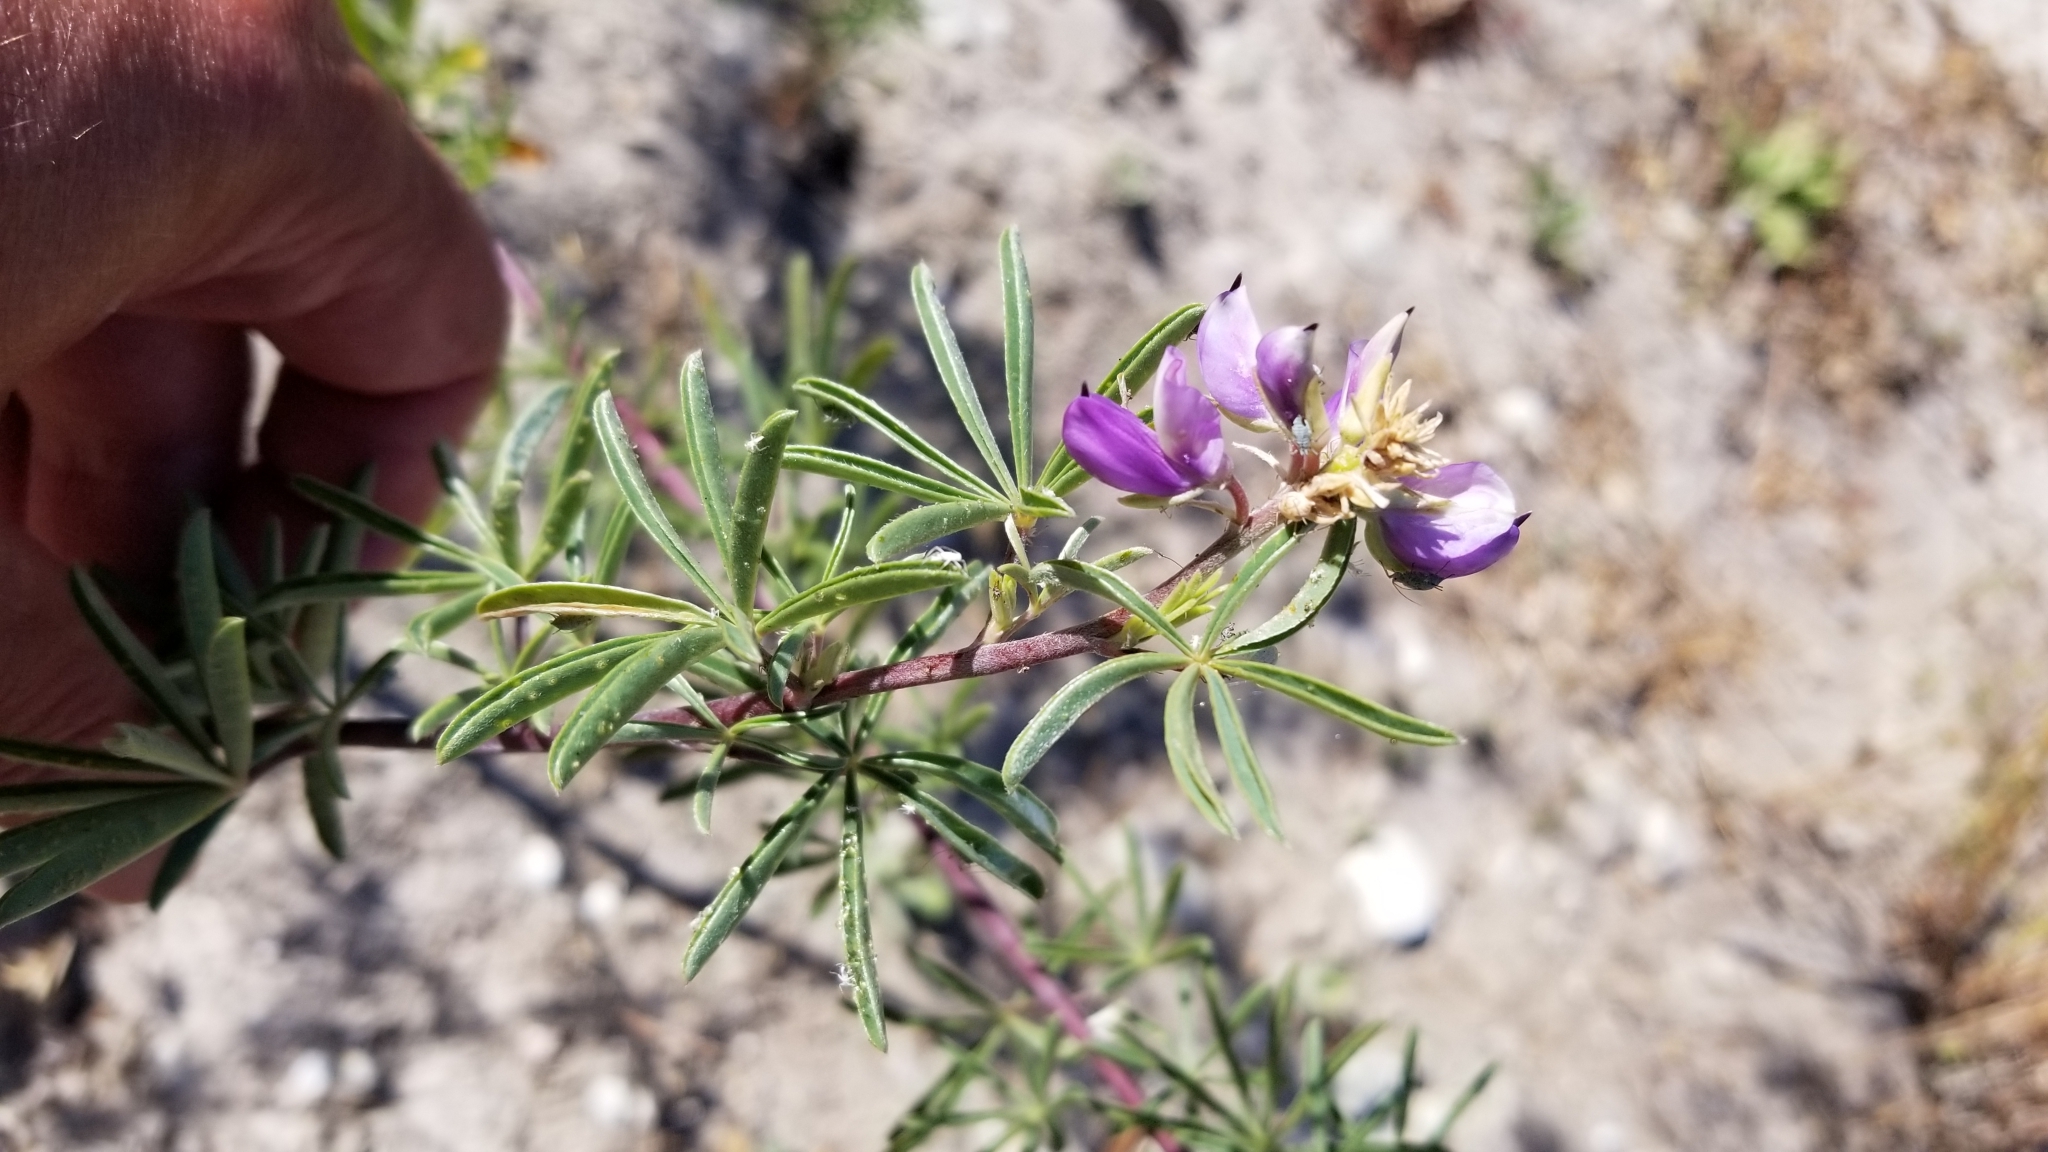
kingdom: Plantae
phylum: Tracheophyta
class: Magnoliopsida
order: Fabales
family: Fabaceae
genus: Lupinus
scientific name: Lupinus arboreus
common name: Yellow bush lupine
